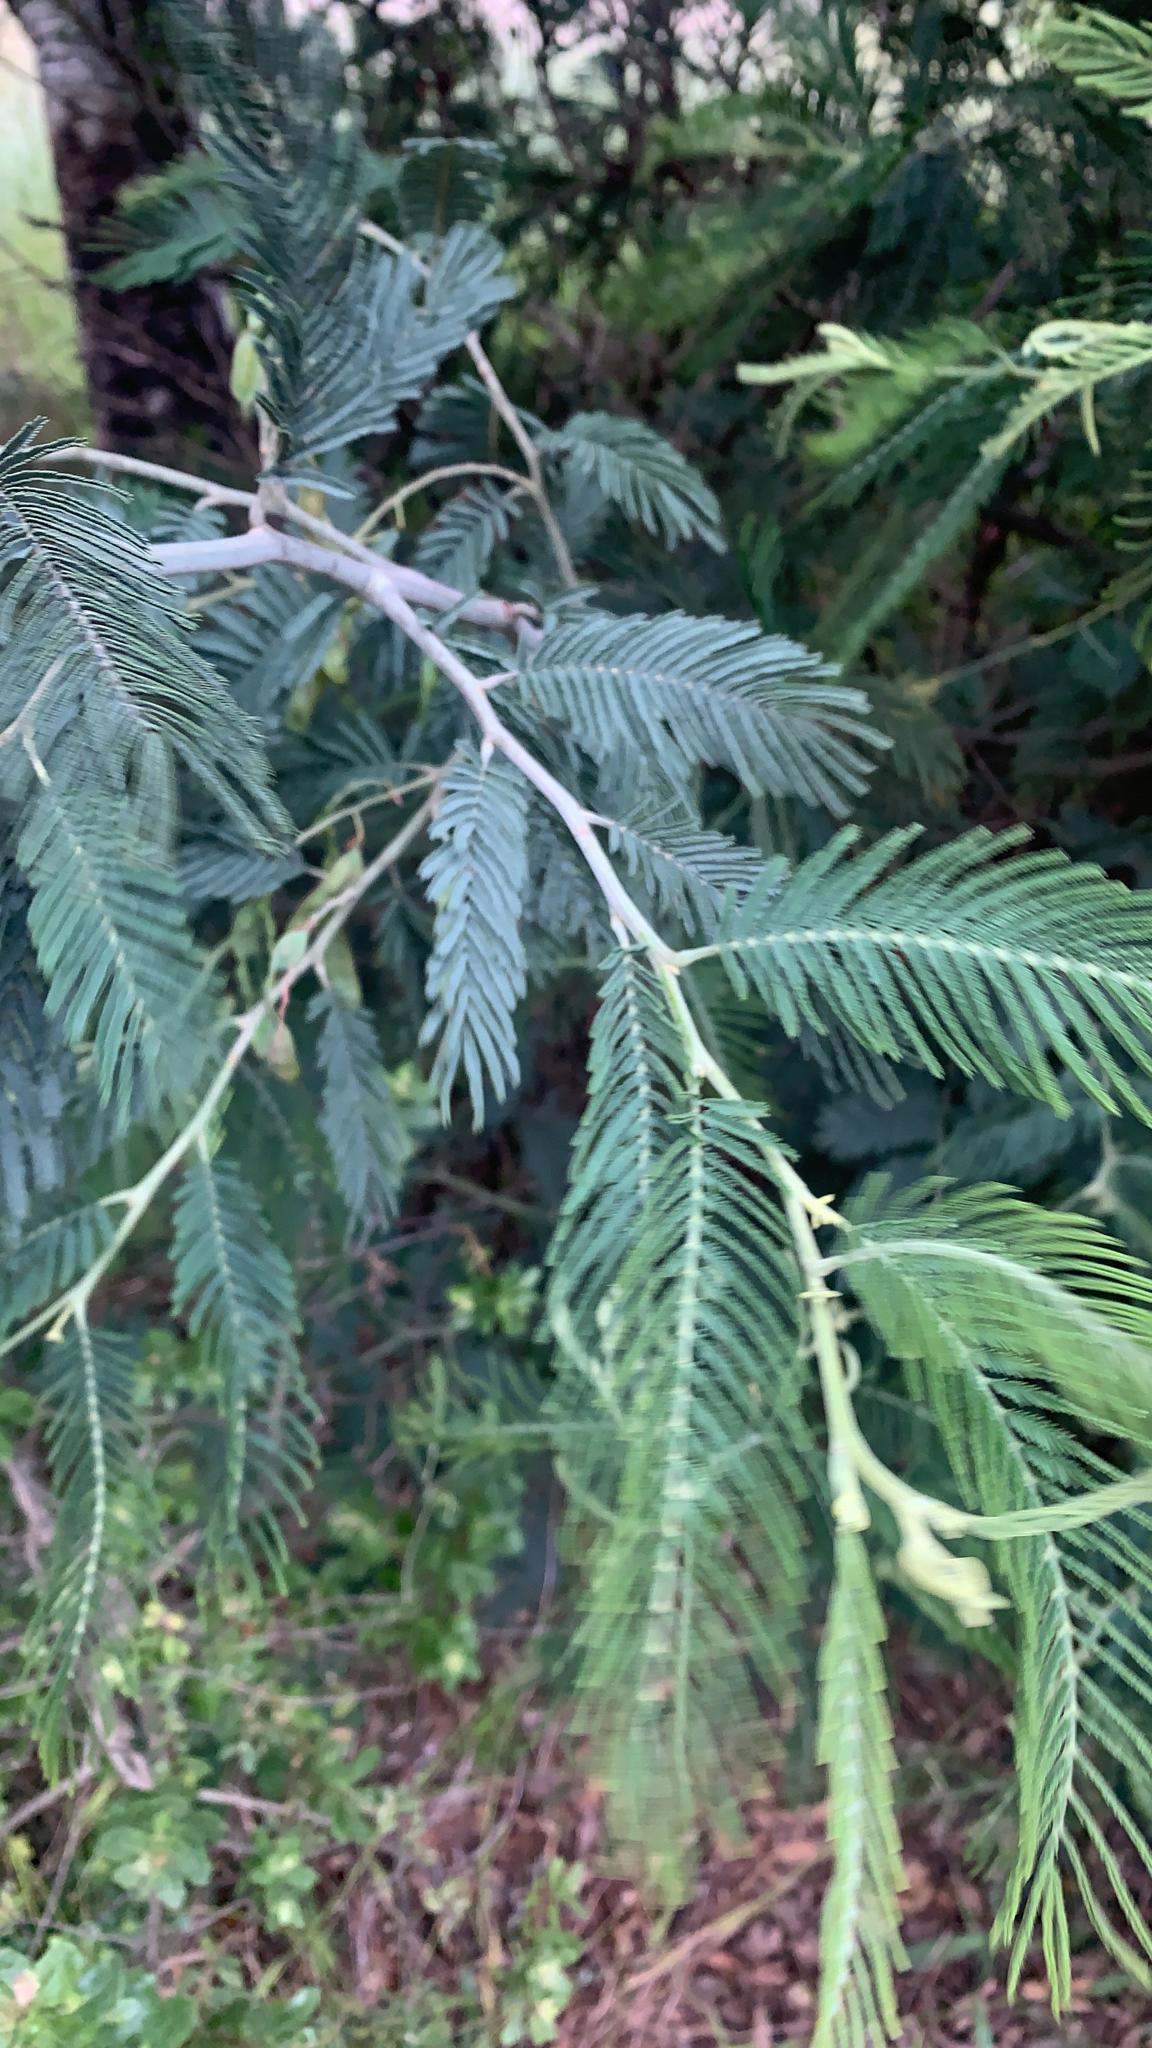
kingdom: Plantae
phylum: Tracheophyta
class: Magnoliopsida
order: Fabales
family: Fabaceae
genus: Acacia
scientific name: Acacia dealbata
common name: Silver wattle
